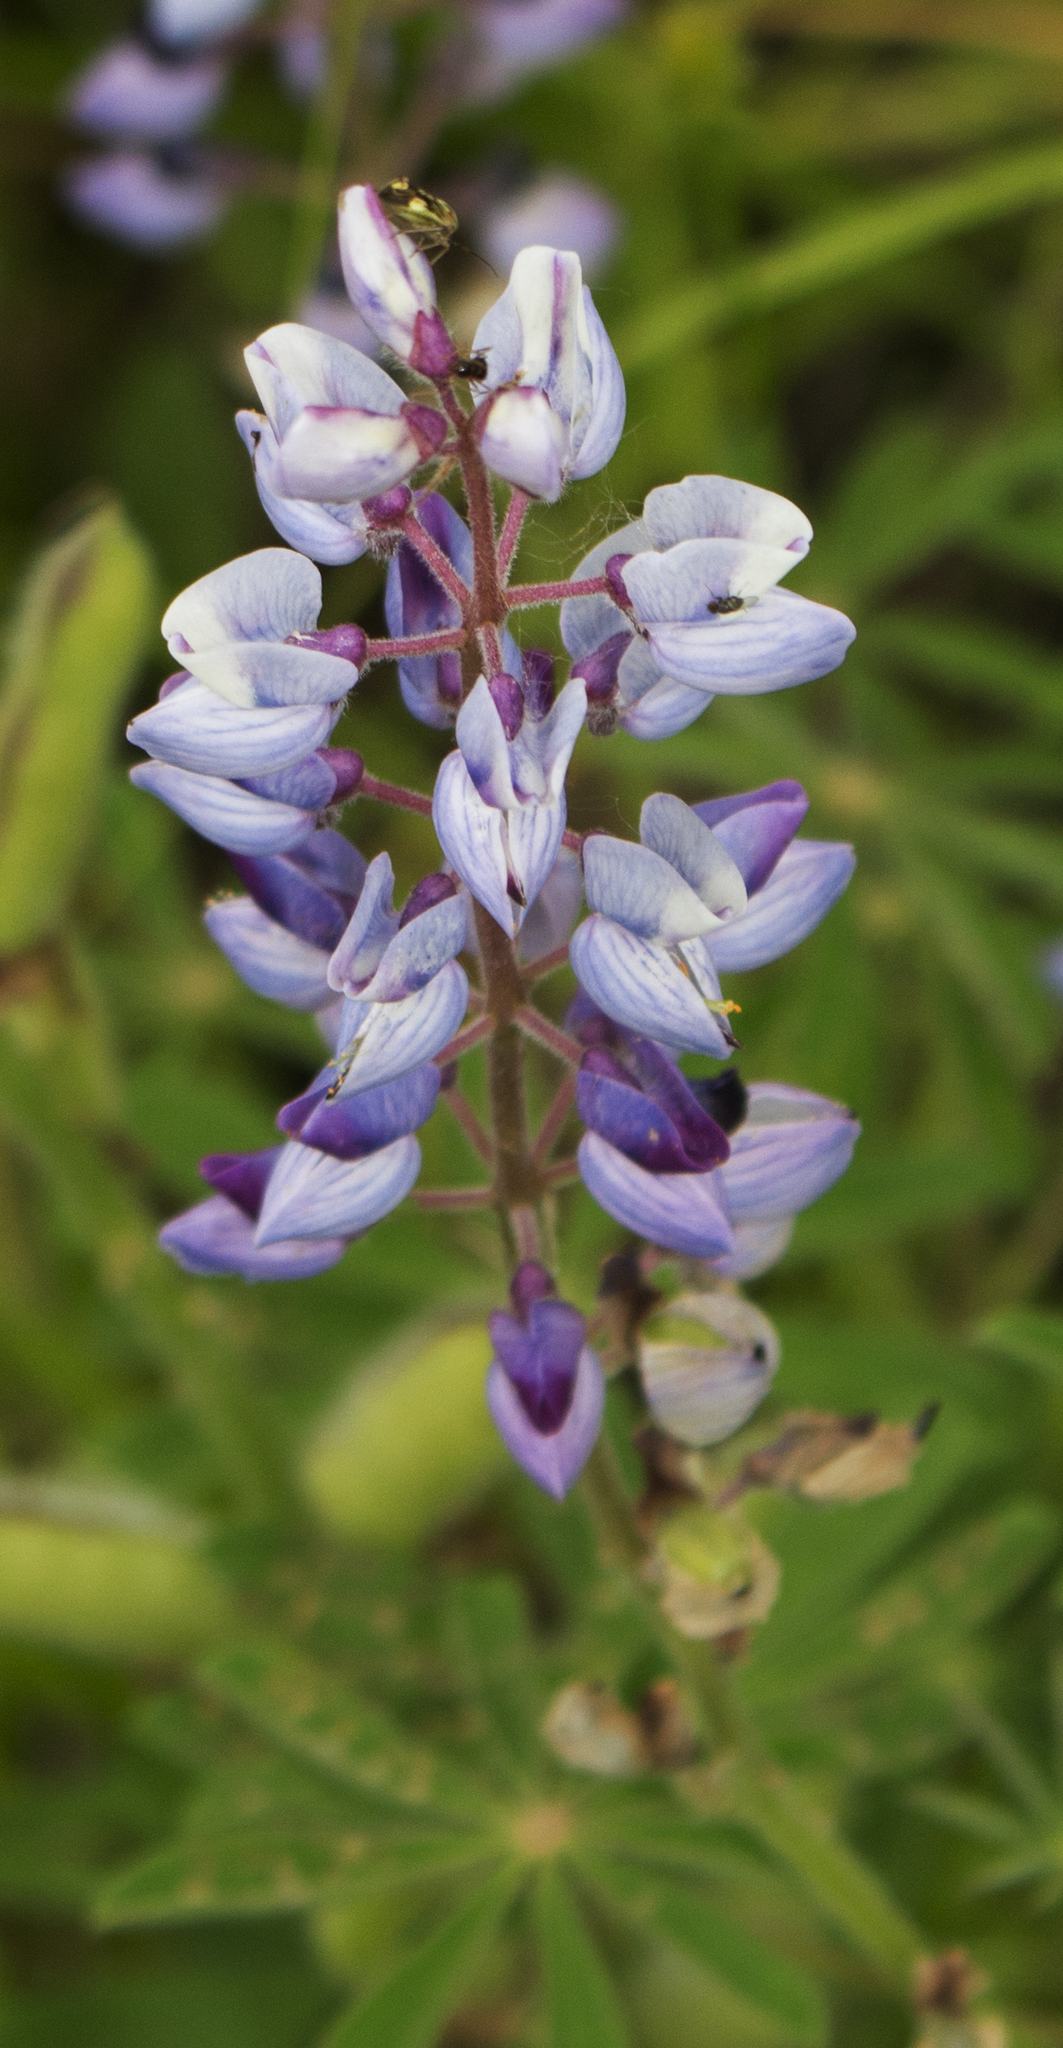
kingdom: Plantae
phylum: Tracheophyta
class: Magnoliopsida
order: Fabales
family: Fabaceae
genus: Lupinus
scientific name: Lupinus perennis
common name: Sundial lupine
